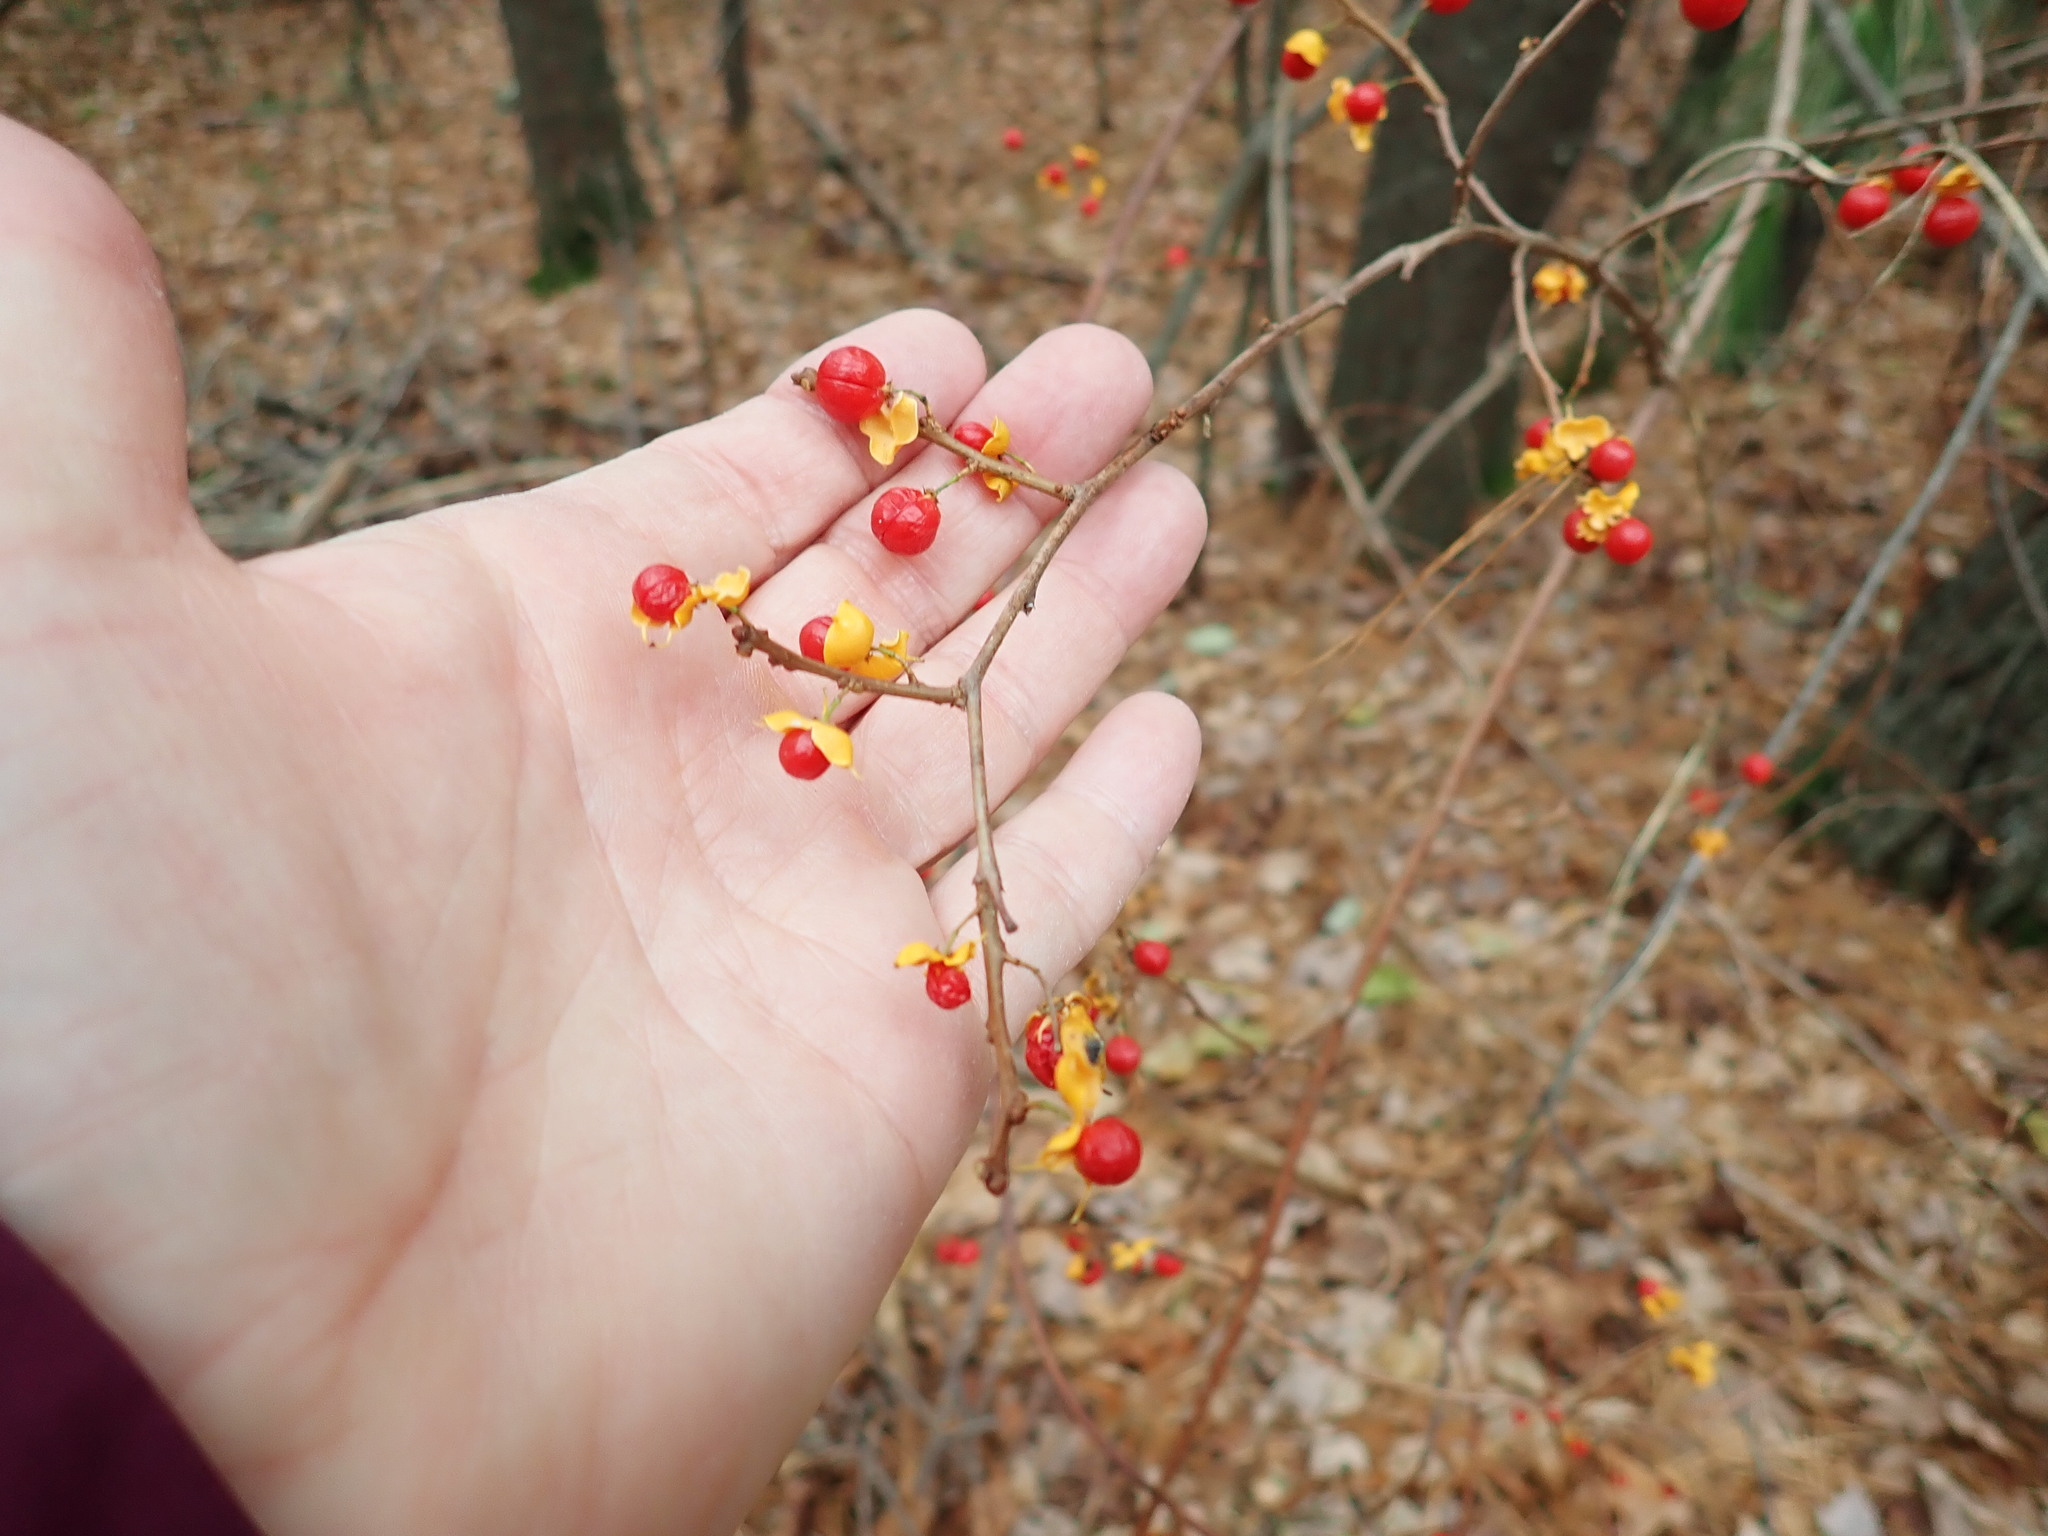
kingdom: Plantae
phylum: Tracheophyta
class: Magnoliopsida
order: Celastrales
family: Celastraceae
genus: Celastrus
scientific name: Celastrus orbiculatus
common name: Oriental bittersweet
